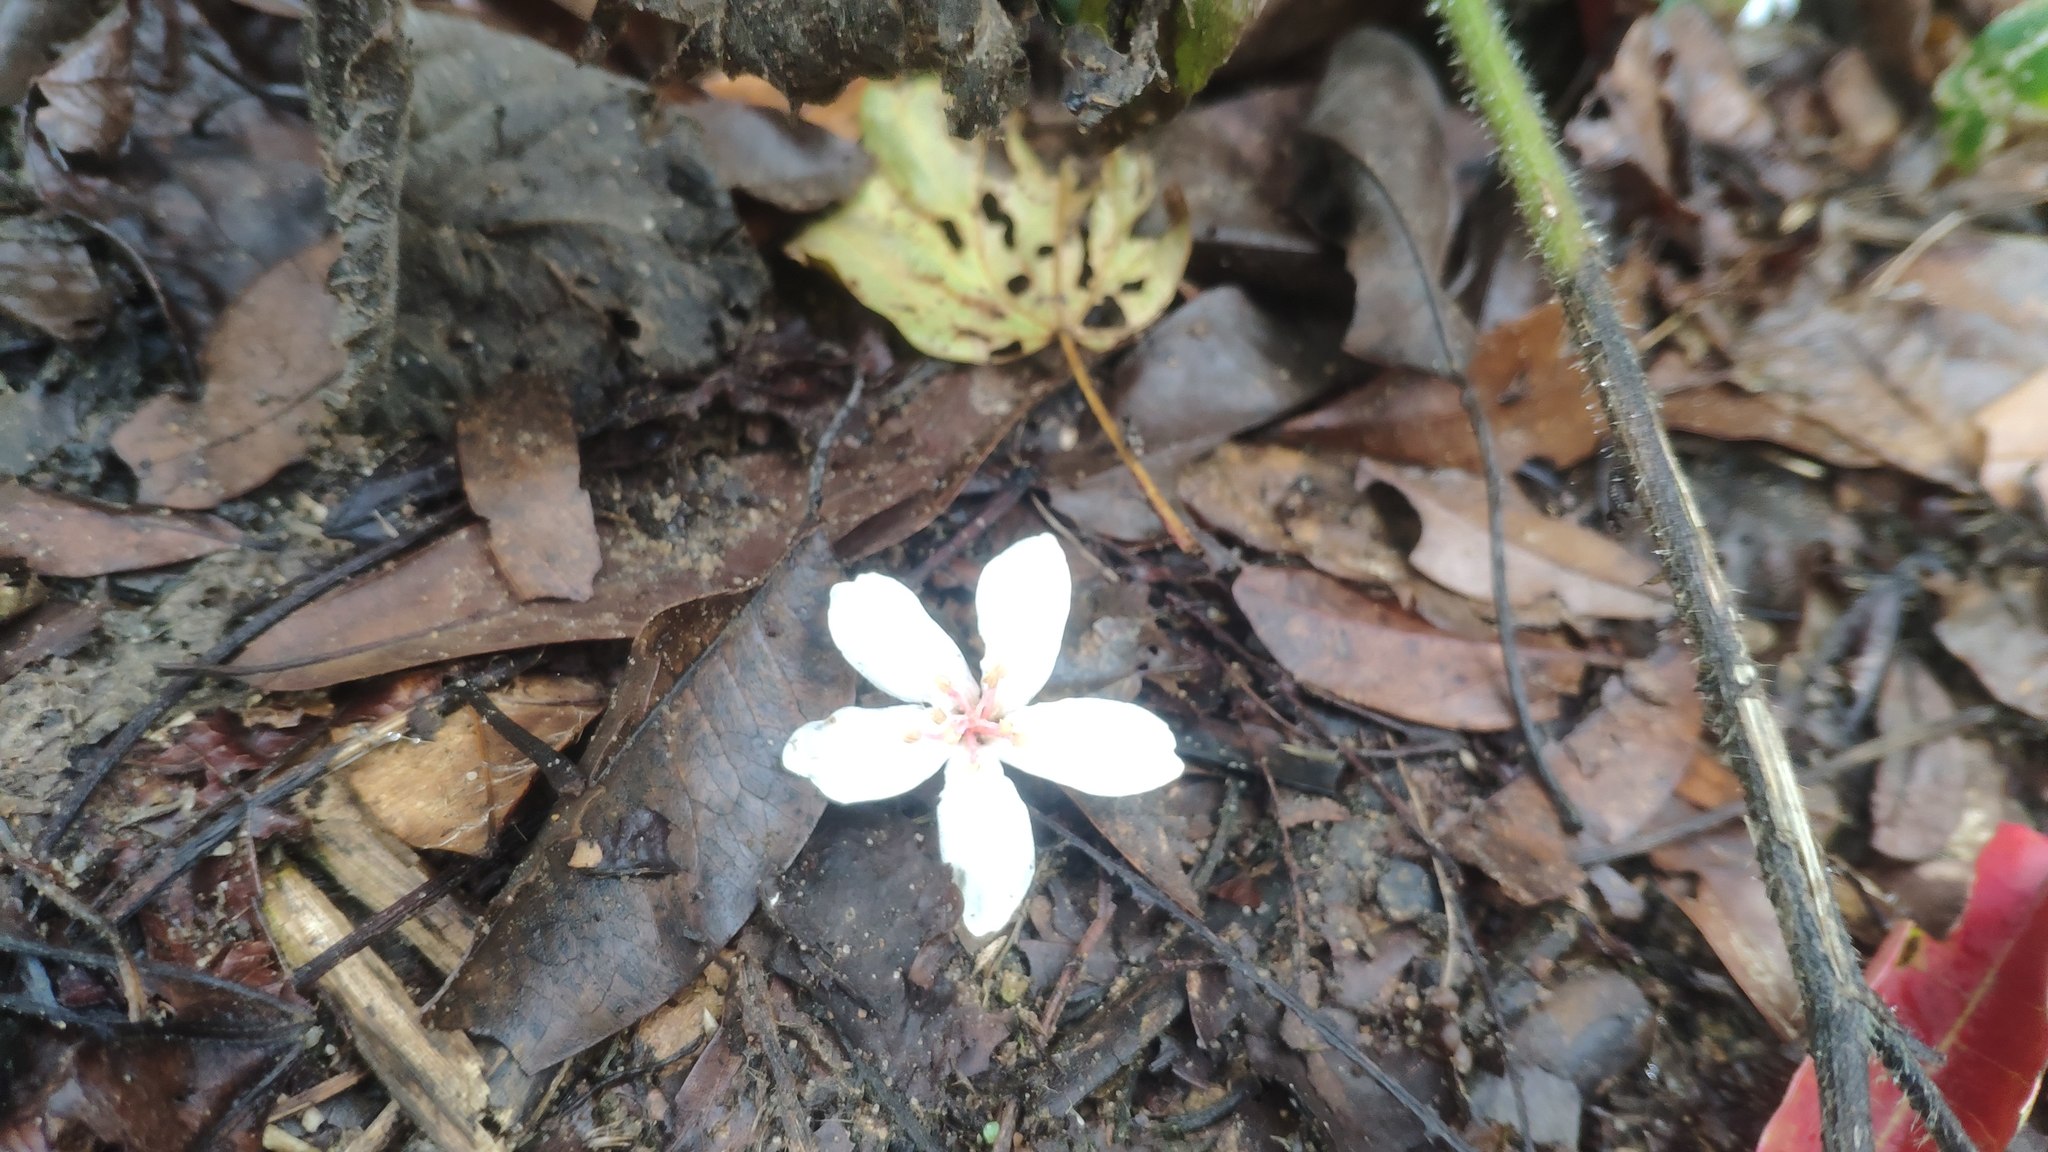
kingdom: Plantae
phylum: Tracheophyta
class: Magnoliopsida
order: Malpighiales
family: Euphorbiaceae
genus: Vernicia
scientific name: Vernicia montana
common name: Mu oil tree
